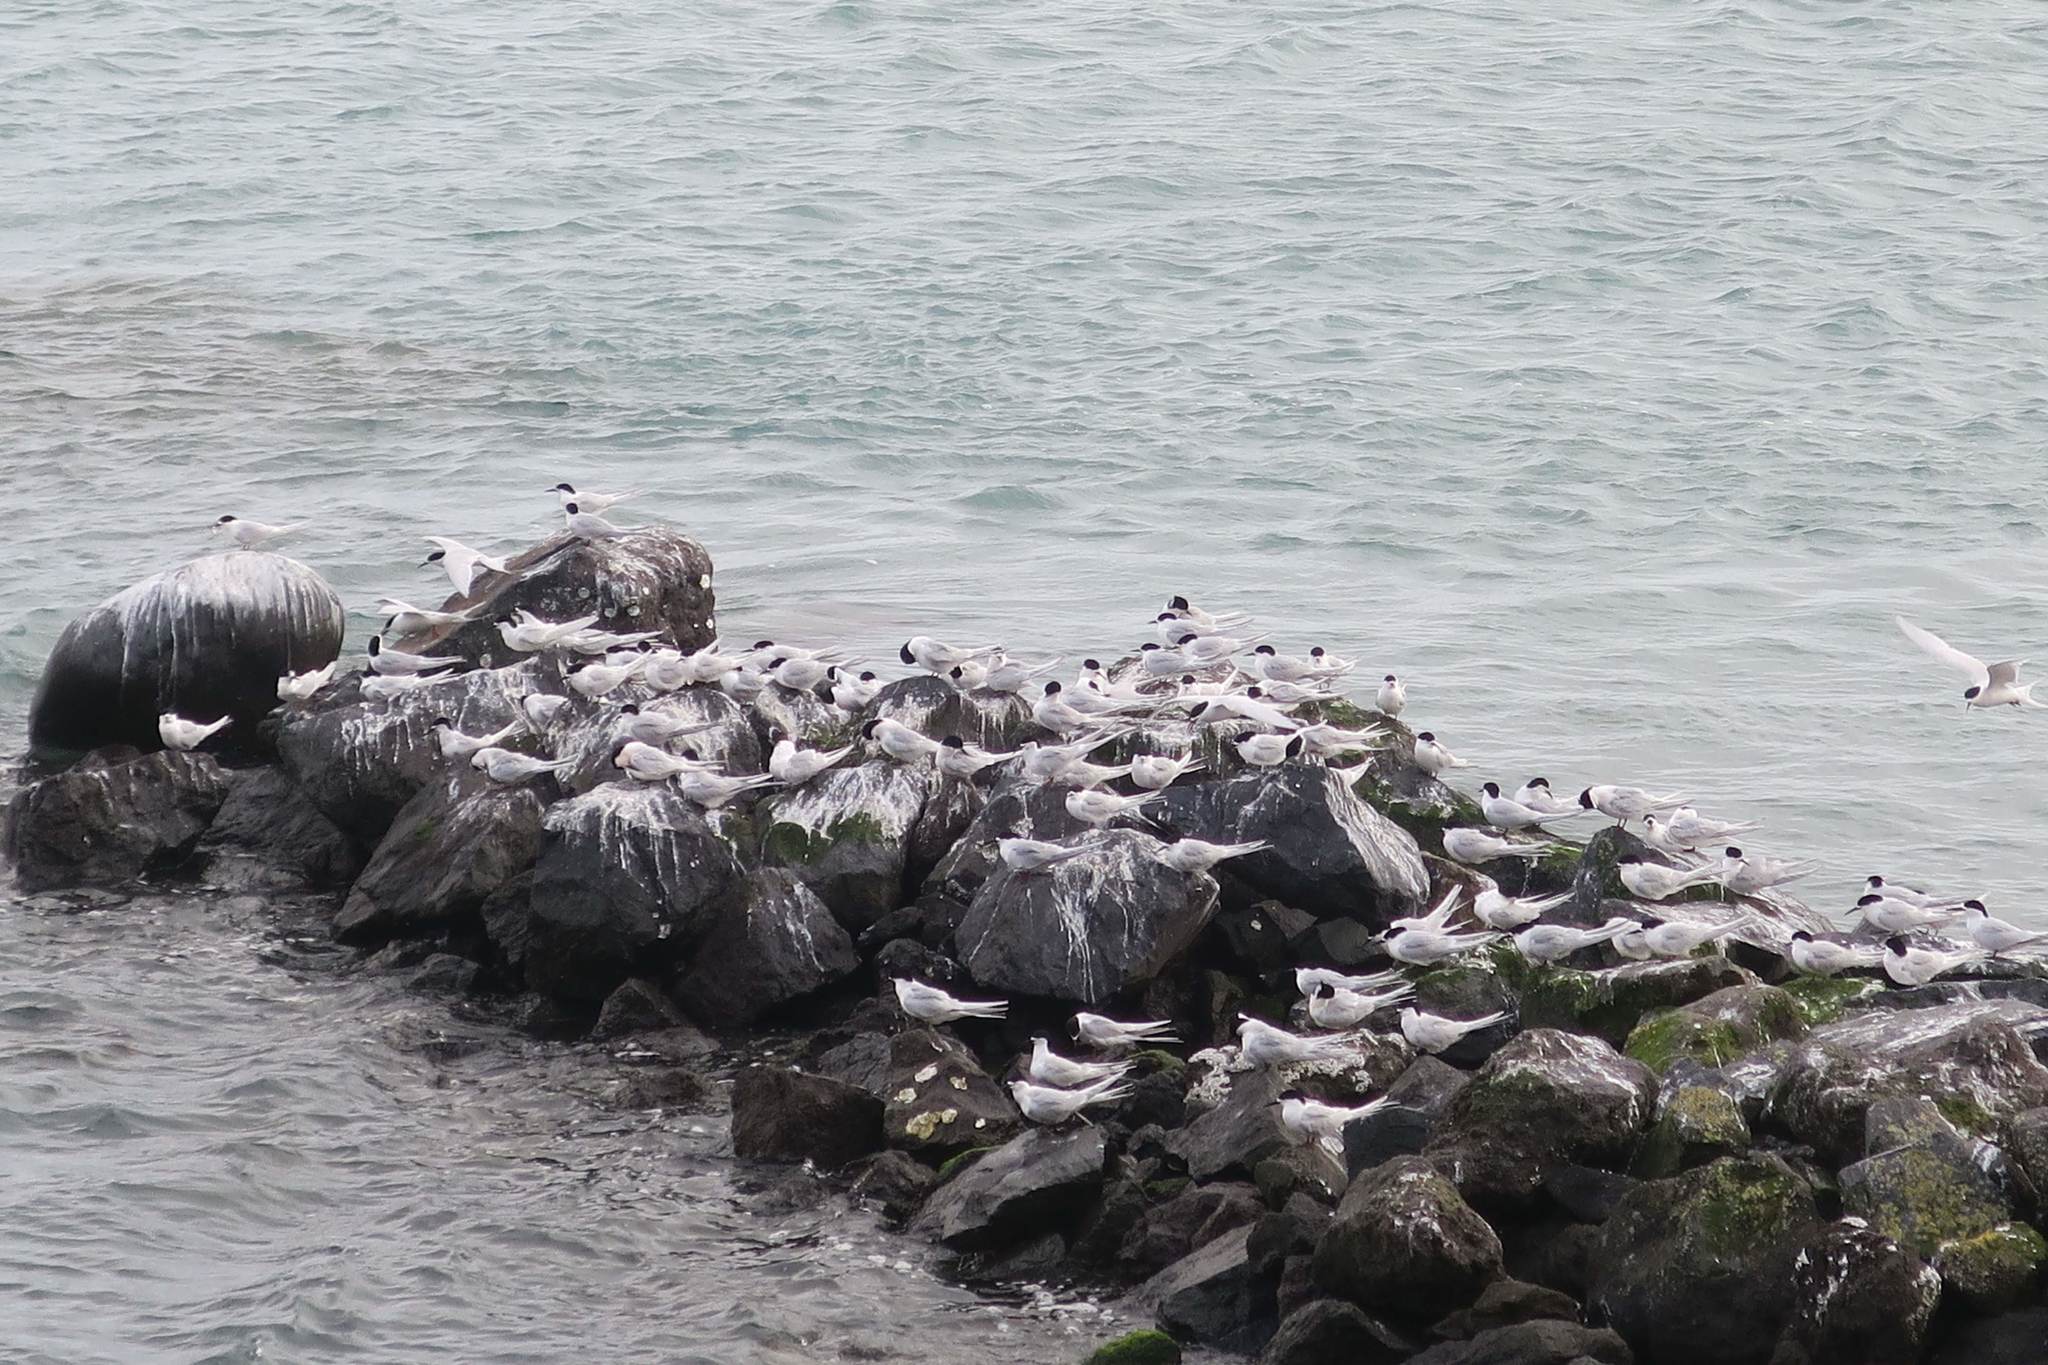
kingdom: Animalia
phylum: Chordata
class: Aves
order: Charadriiformes
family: Laridae
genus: Sterna
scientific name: Sterna striata
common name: White-fronted tern
